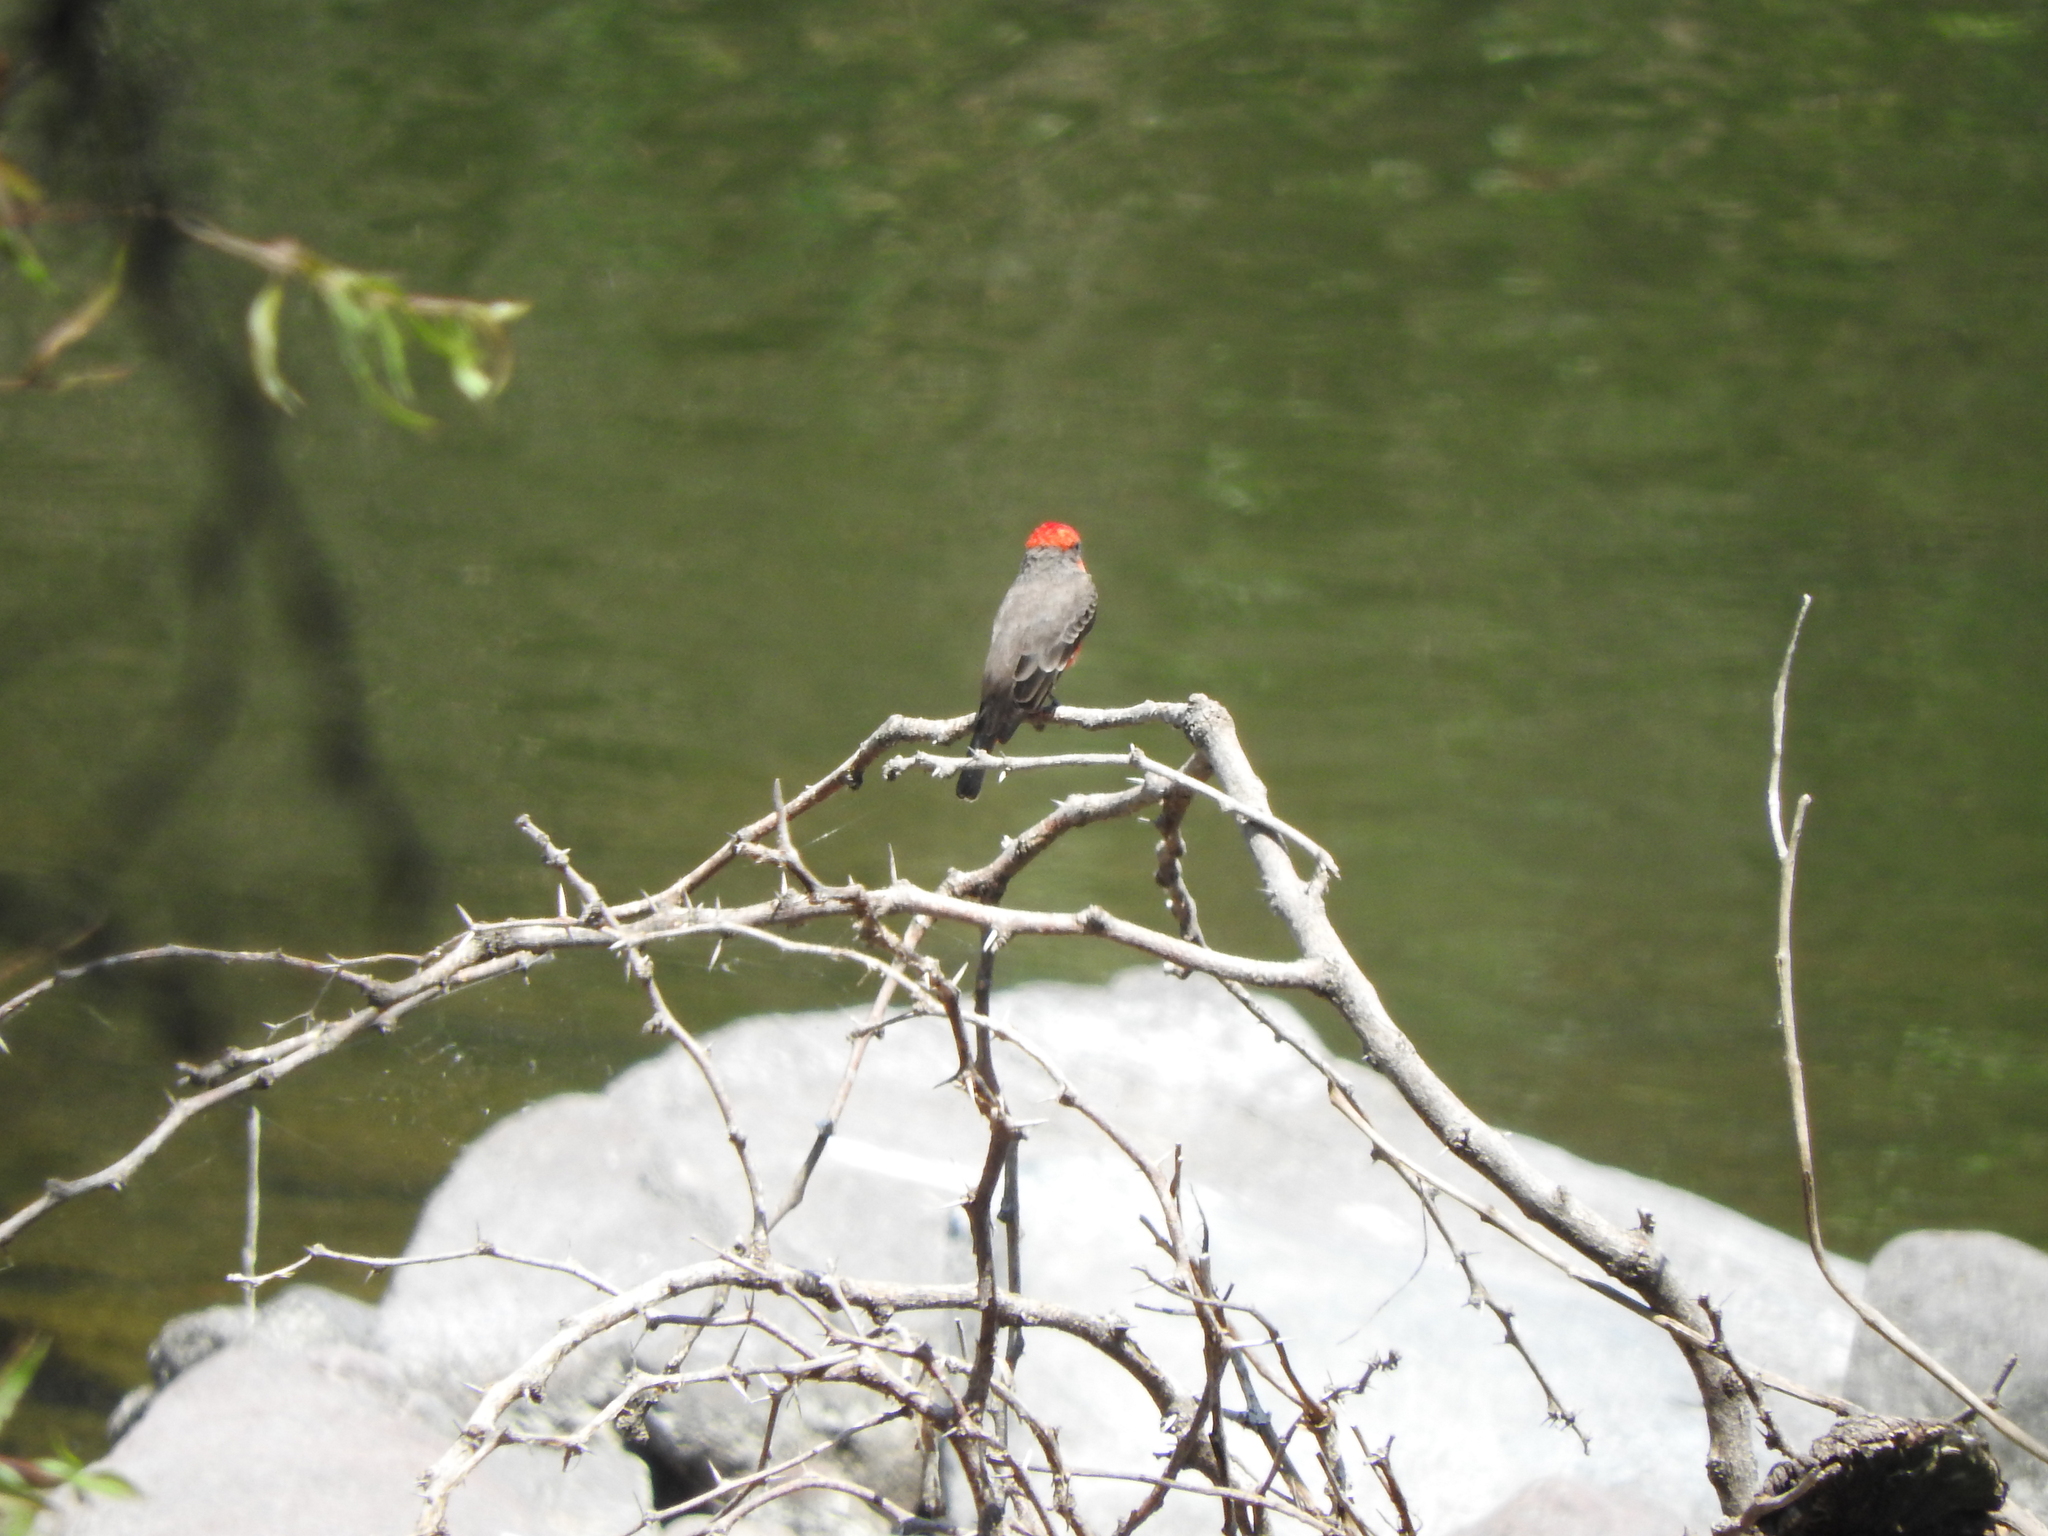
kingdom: Animalia
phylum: Chordata
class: Aves
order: Passeriformes
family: Tyrannidae
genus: Pyrocephalus
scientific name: Pyrocephalus rubinus
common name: Vermilion flycatcher
